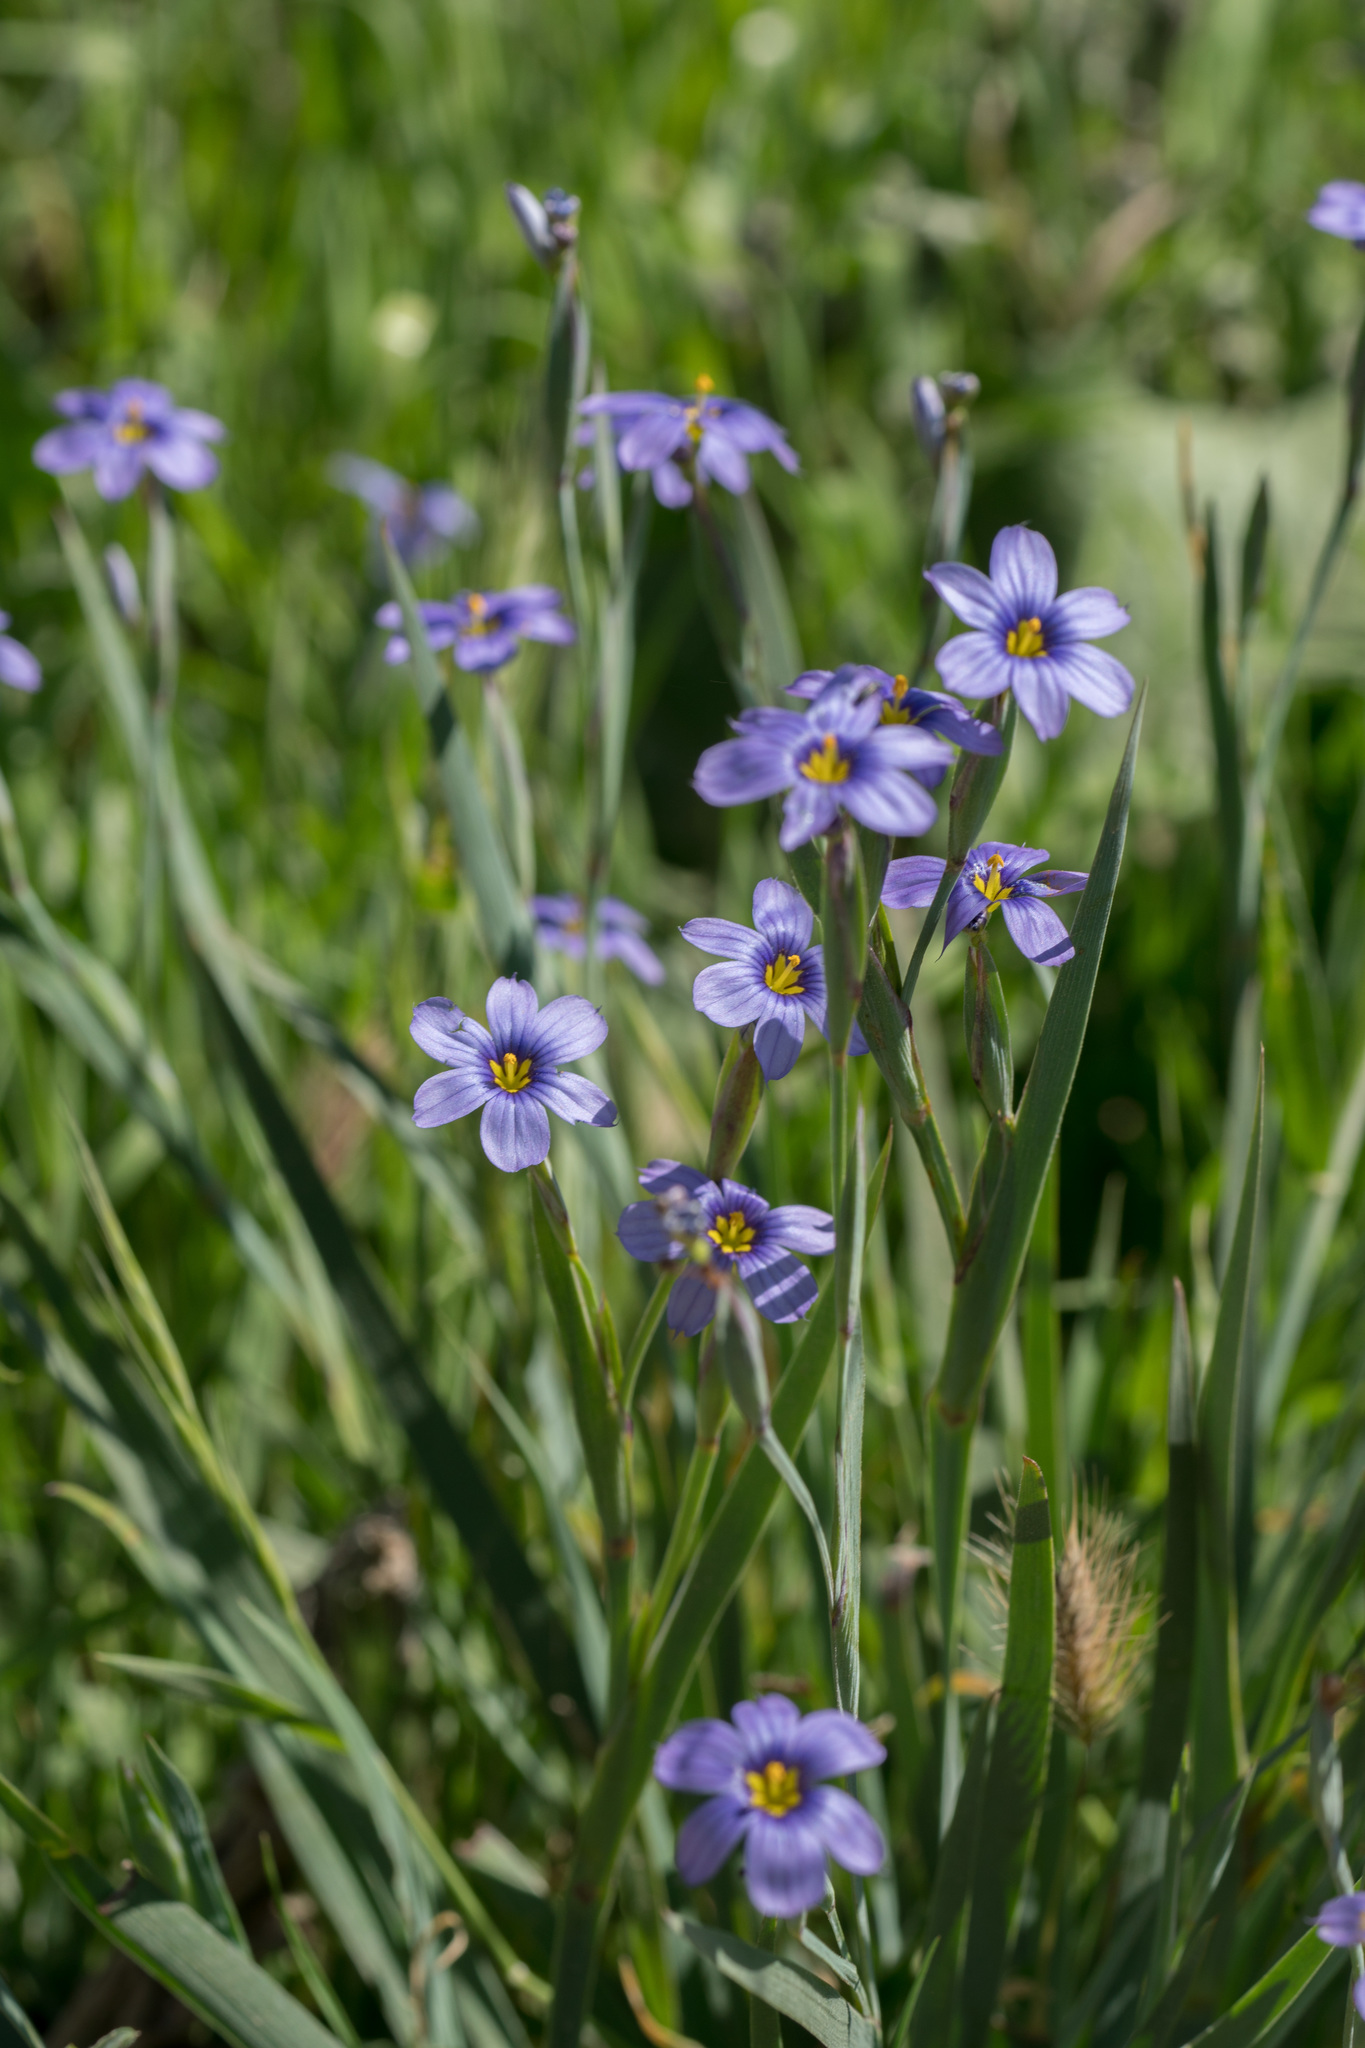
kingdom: Plantae
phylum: Tracheophyta
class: Liliopsida
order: Asparagales
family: Iridaceae
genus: Sisyrinchium
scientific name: Sisyrinchium bellum
